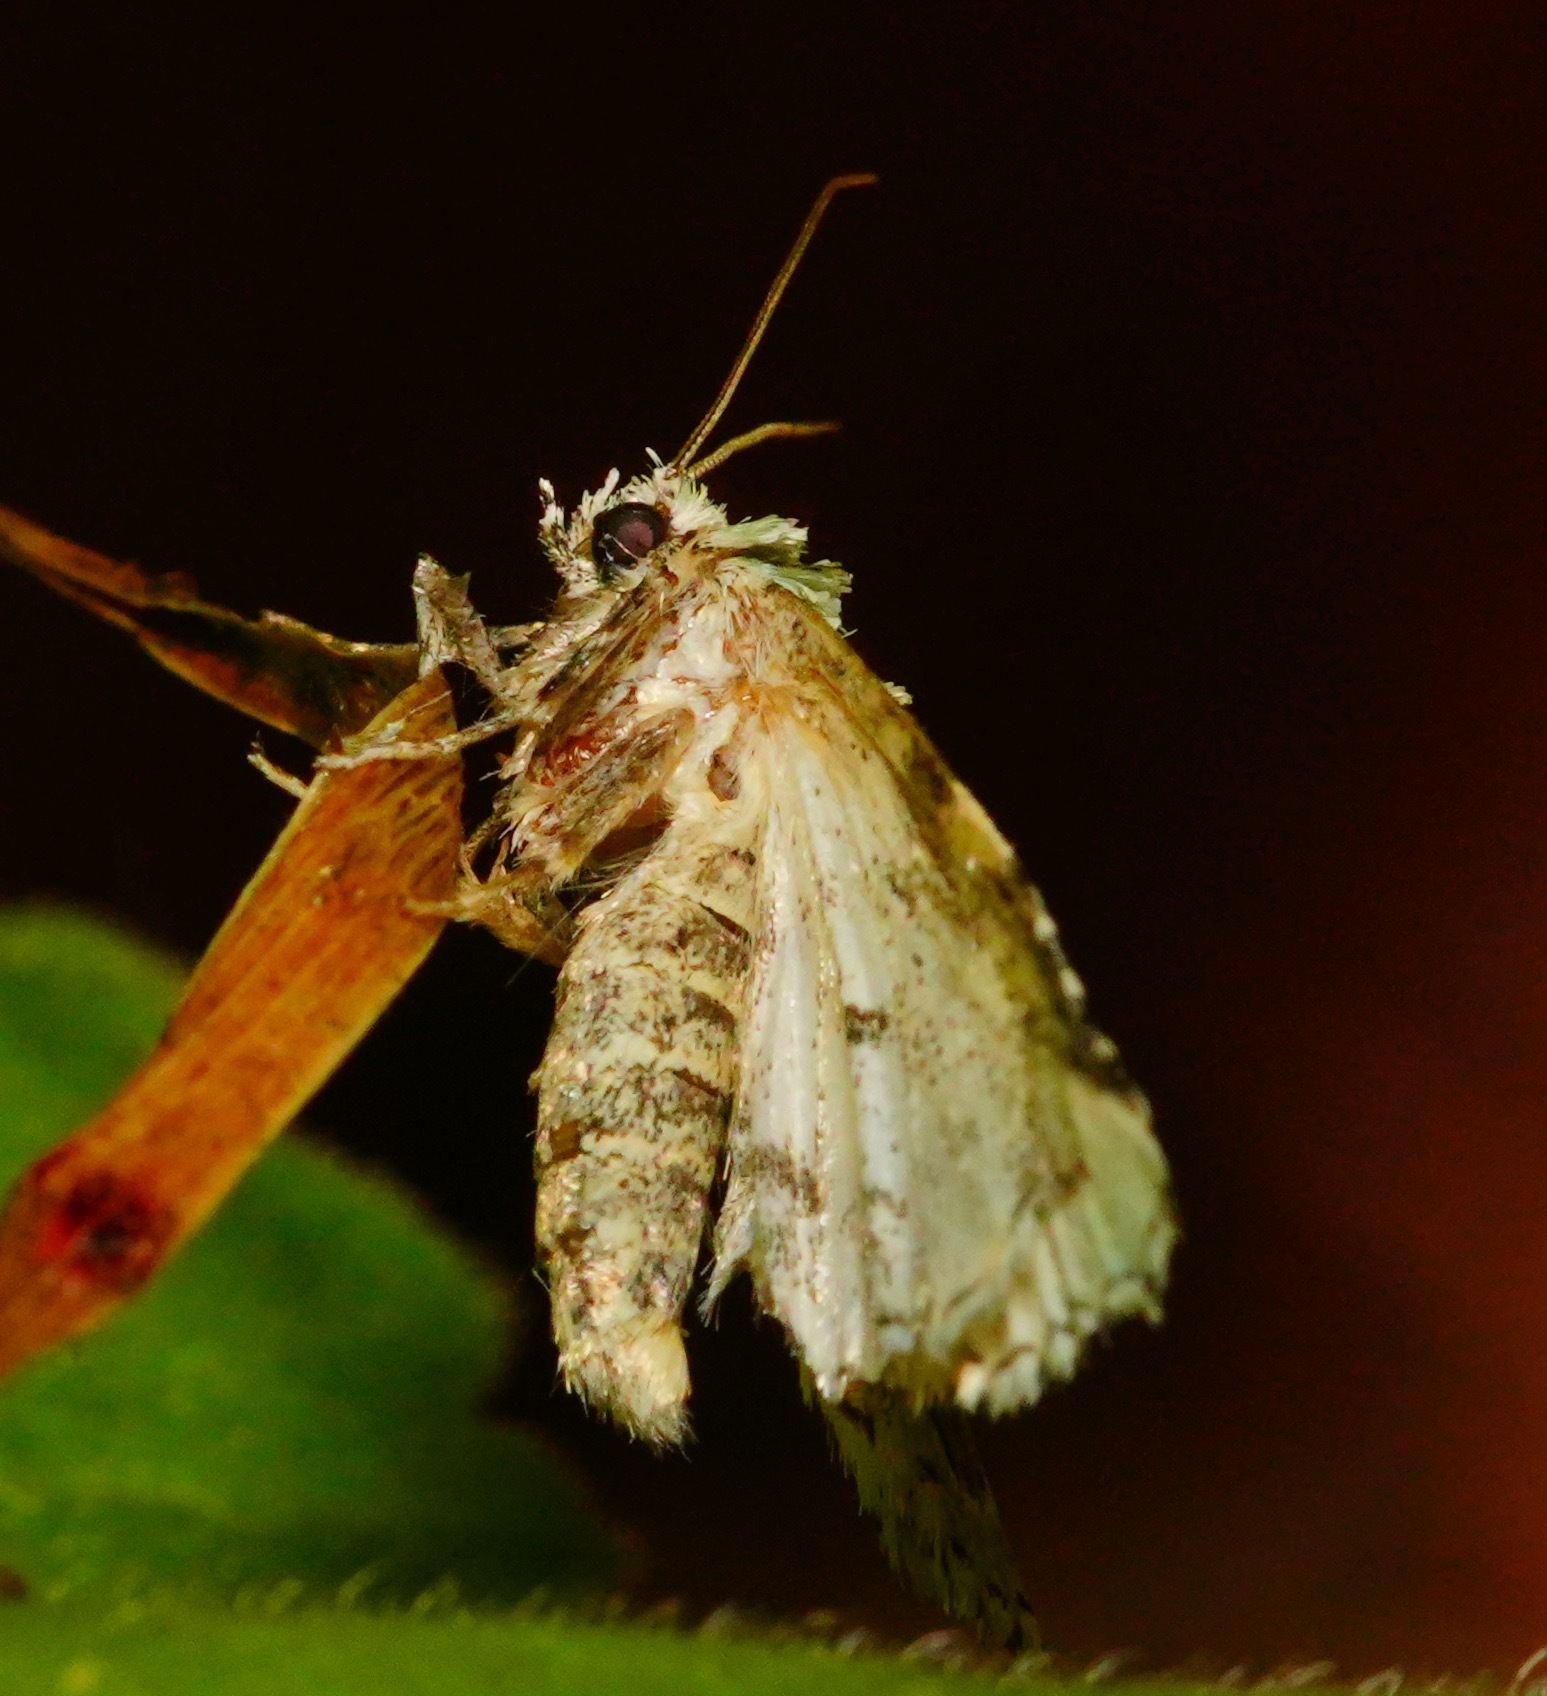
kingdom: Animalia
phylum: Arthropoda
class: Insecta
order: Lepidoptera
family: Noctuidae
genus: Bryolymnia
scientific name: Bryolymnia viridata
